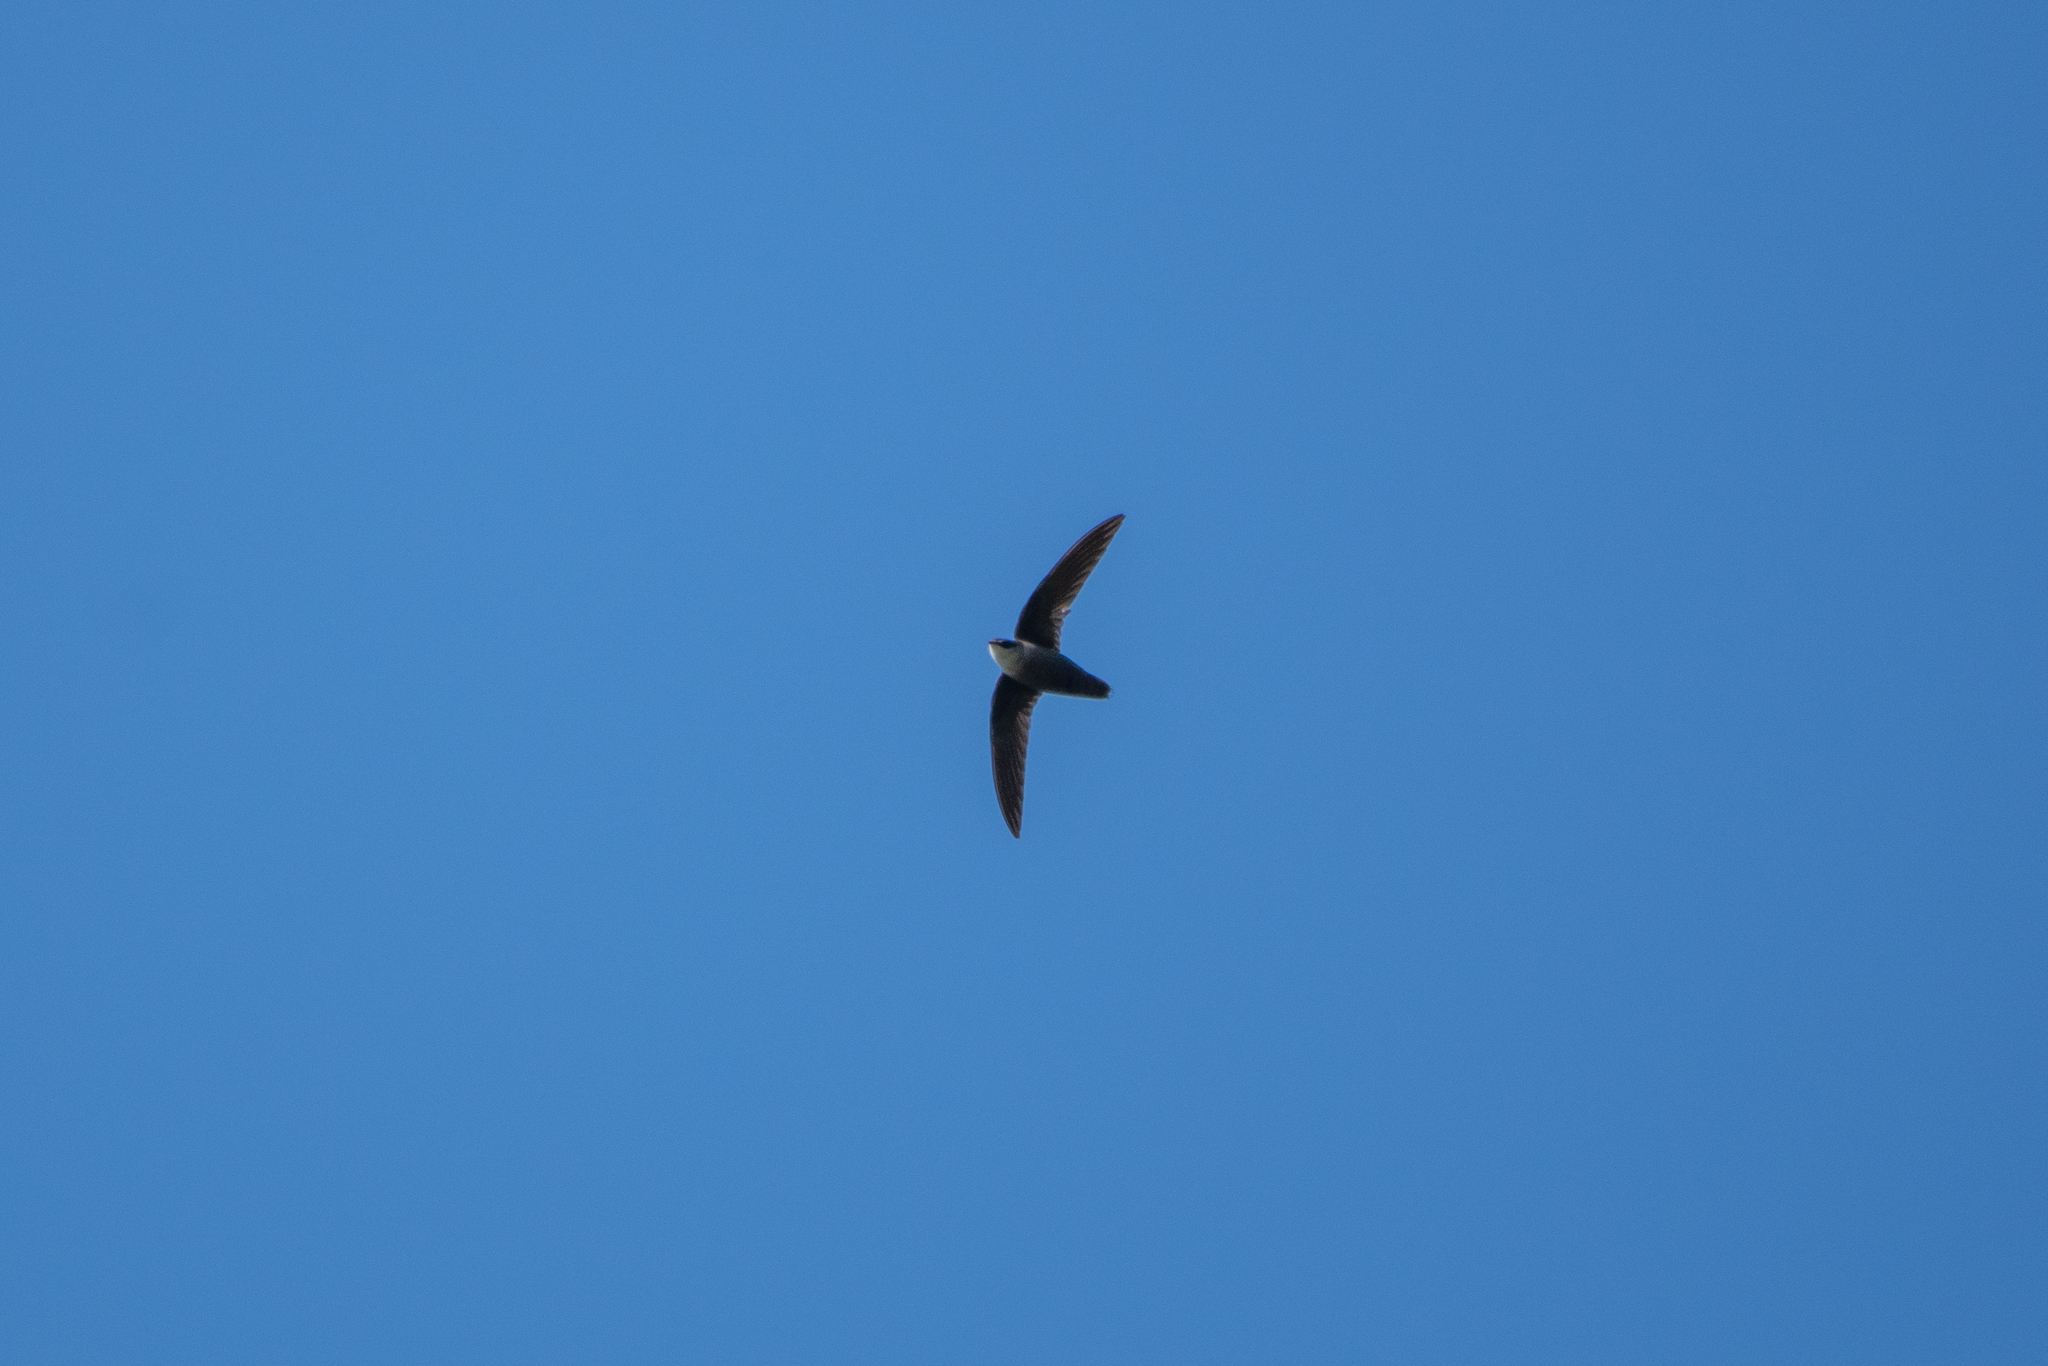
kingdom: Animalia
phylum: Chordata
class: Aves
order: Apodiformes
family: Apodidae
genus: Chaetura
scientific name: Chaetura pelagica
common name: Chimney swift
